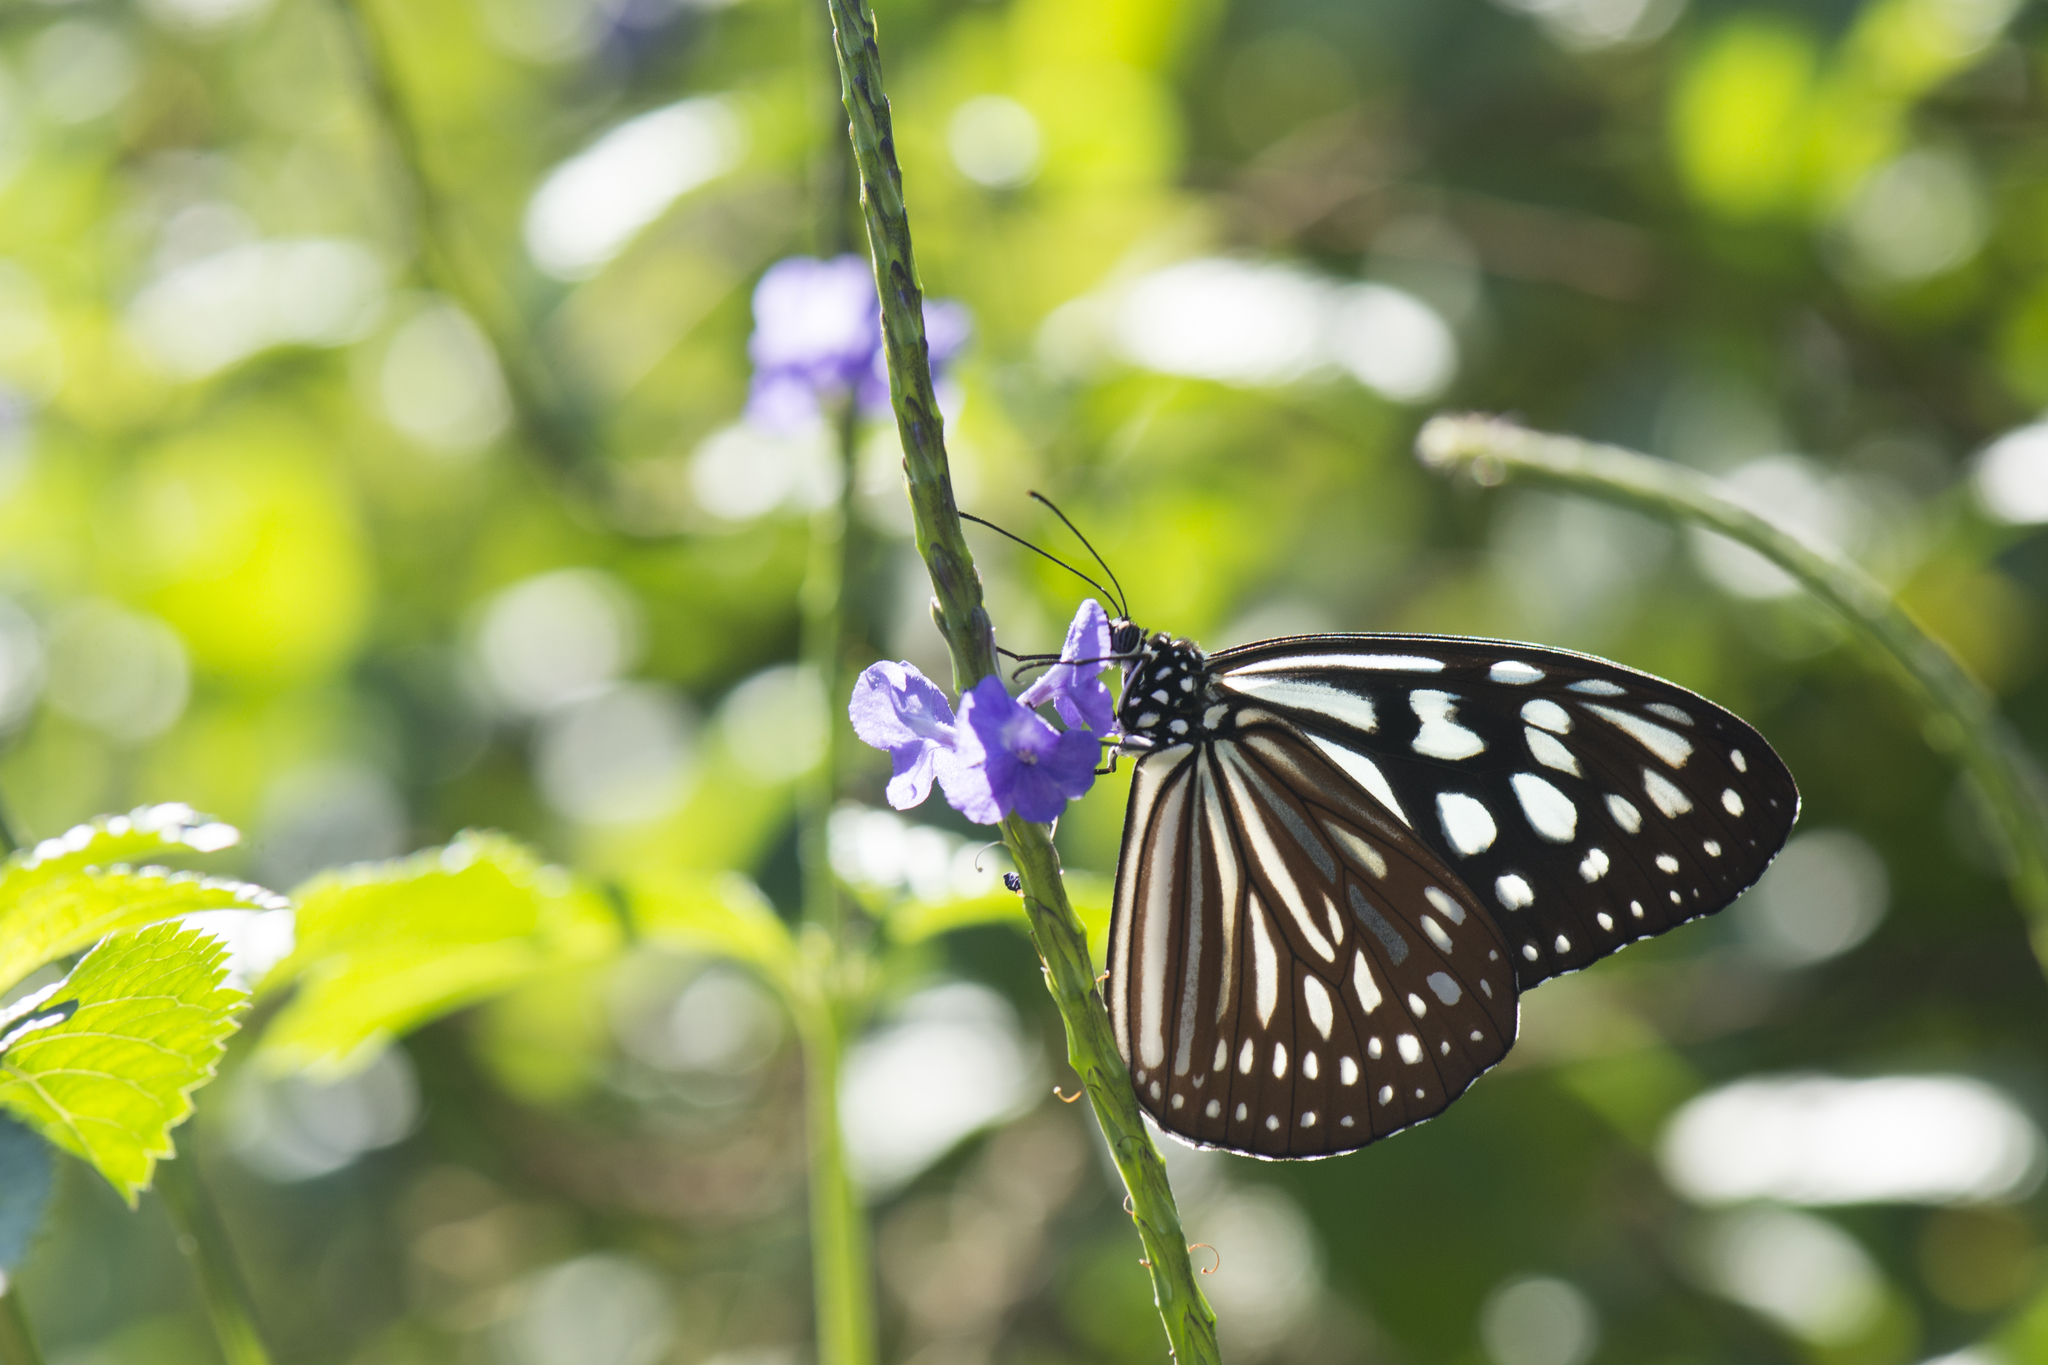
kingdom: Animalia
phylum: Arthropoda
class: Insecta
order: Lepidoptera
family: Nymphalidae
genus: Ideopsis
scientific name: Ideopsis similis
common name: Ceylon blue glassy tiger
